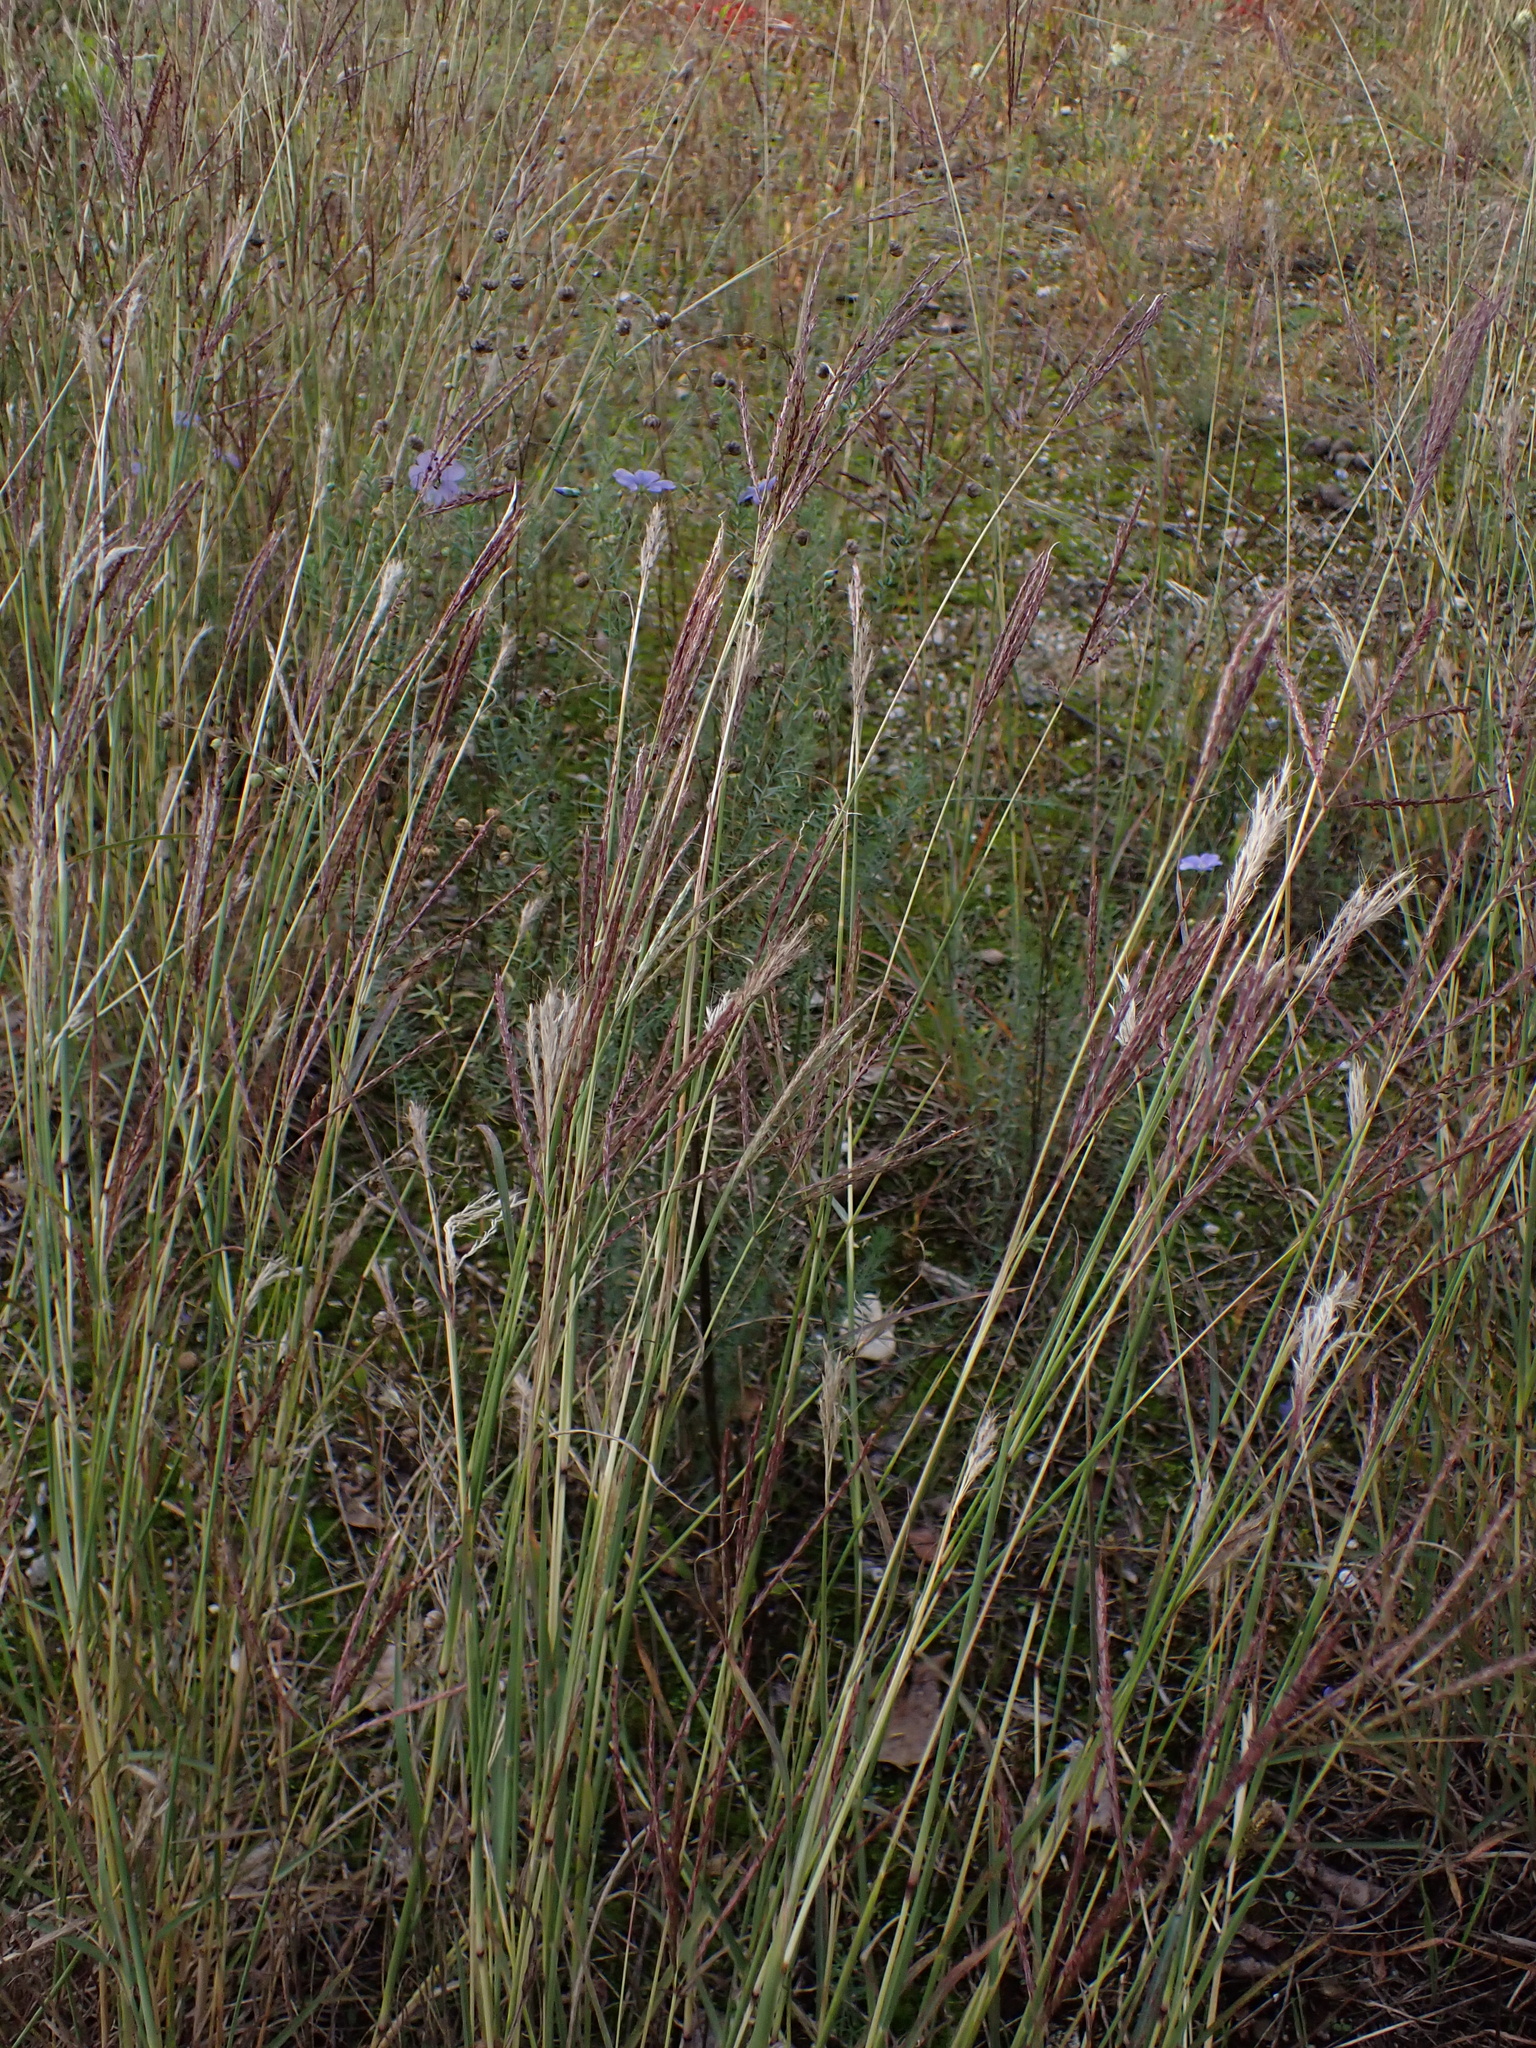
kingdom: Plantae
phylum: Tracheophyta
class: Liliopsida
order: Poales
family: Poaceae
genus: Bothriochloa
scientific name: Bothriochloa ischaemum
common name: Yellow bluestem
